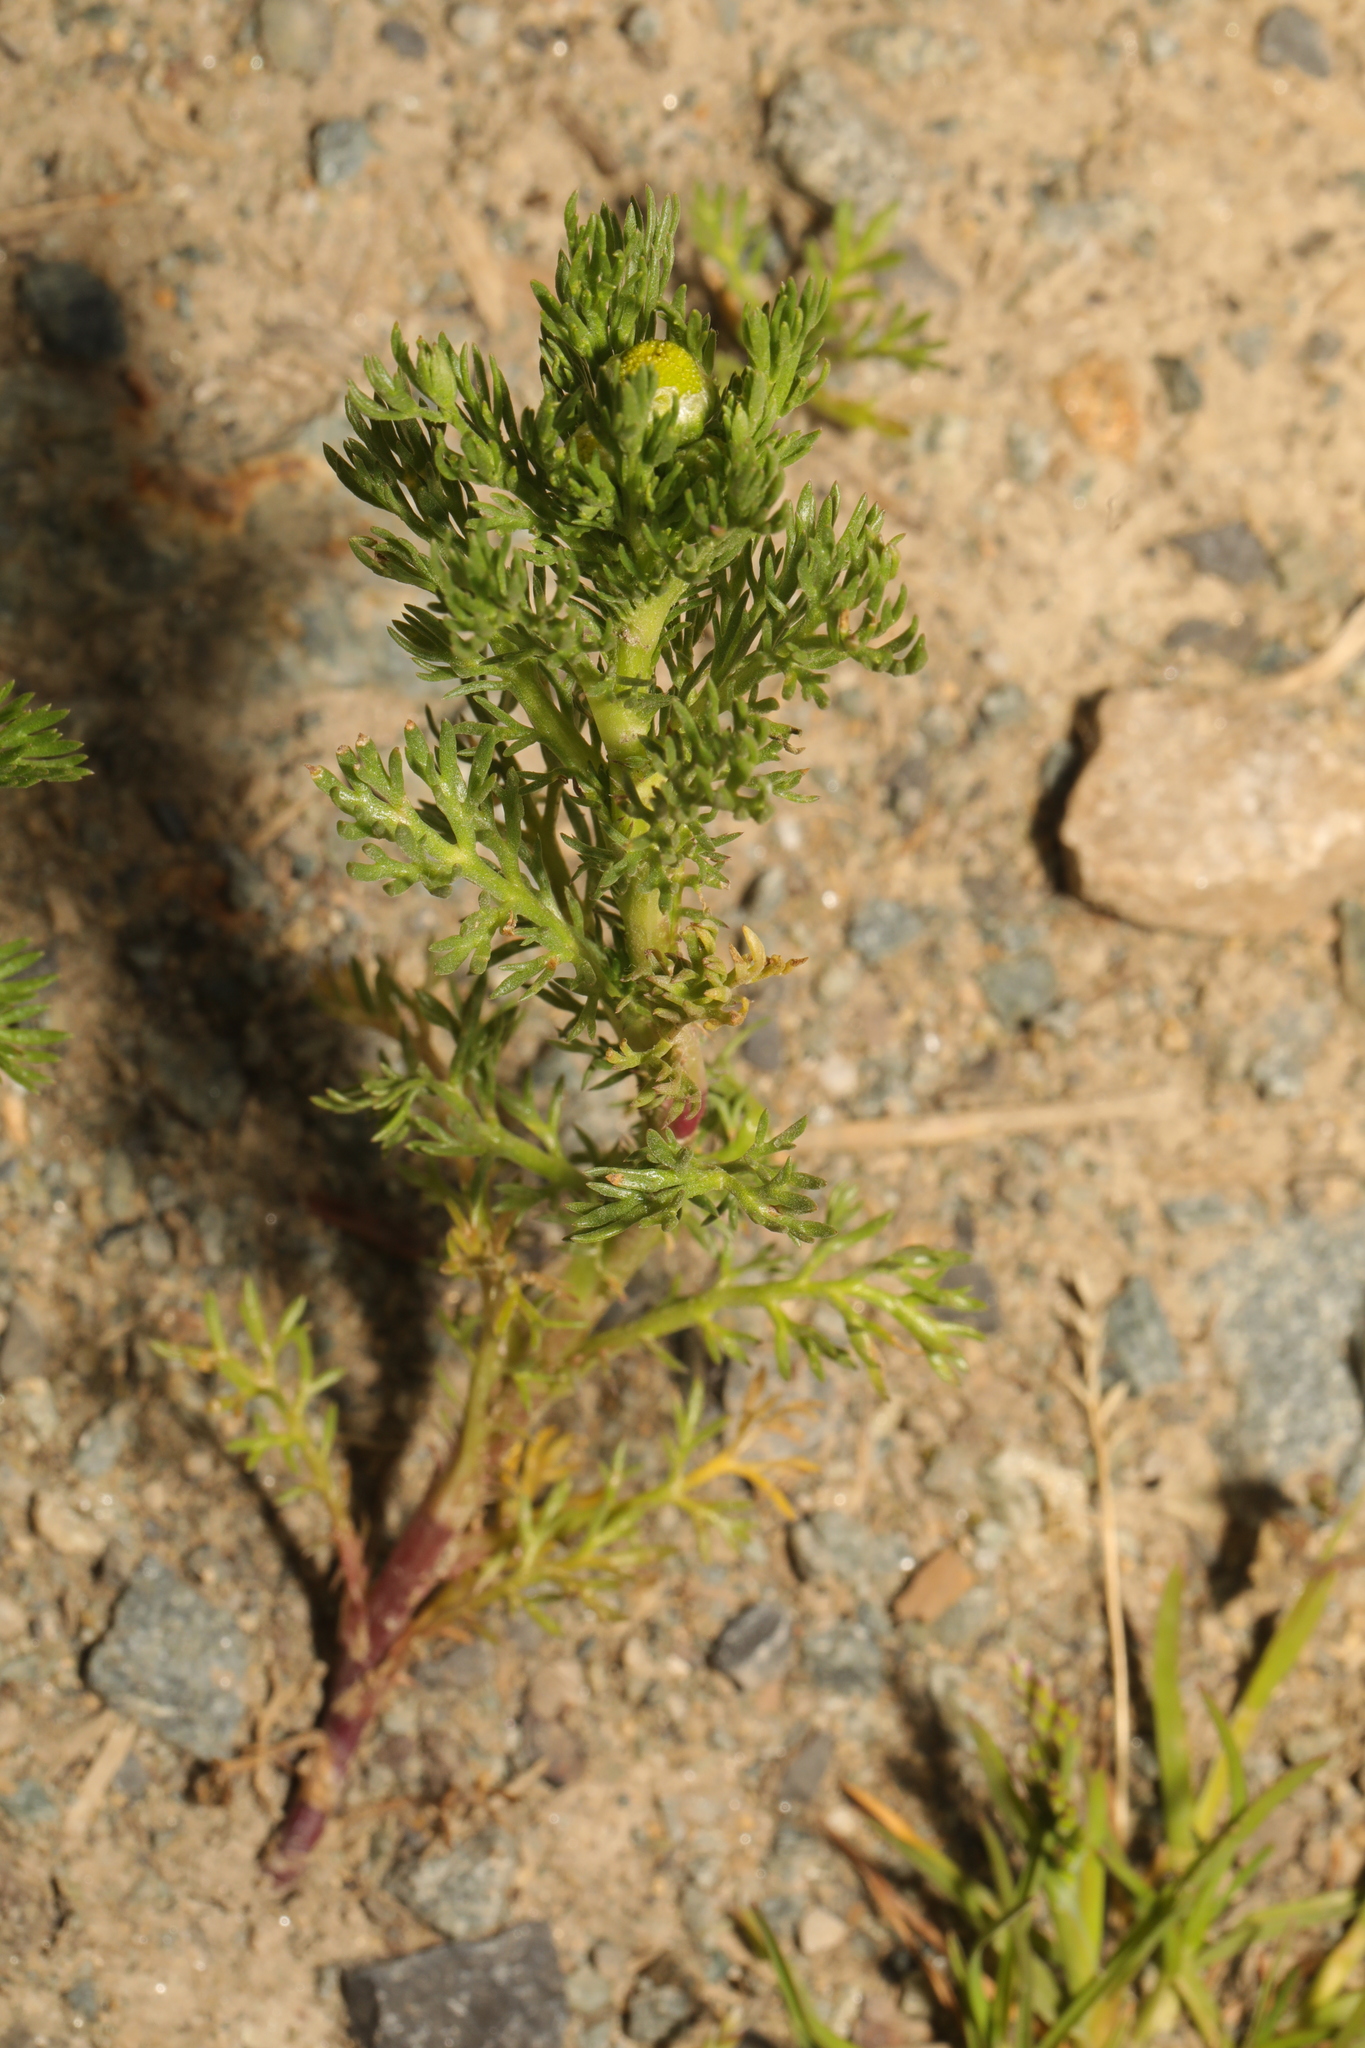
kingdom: Plantae
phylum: Tracheophyta
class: Magnoliopsida
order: Asterales
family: Asteraceae
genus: Matricaria
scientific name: Matricaria discoidea
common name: Disc mayweed
